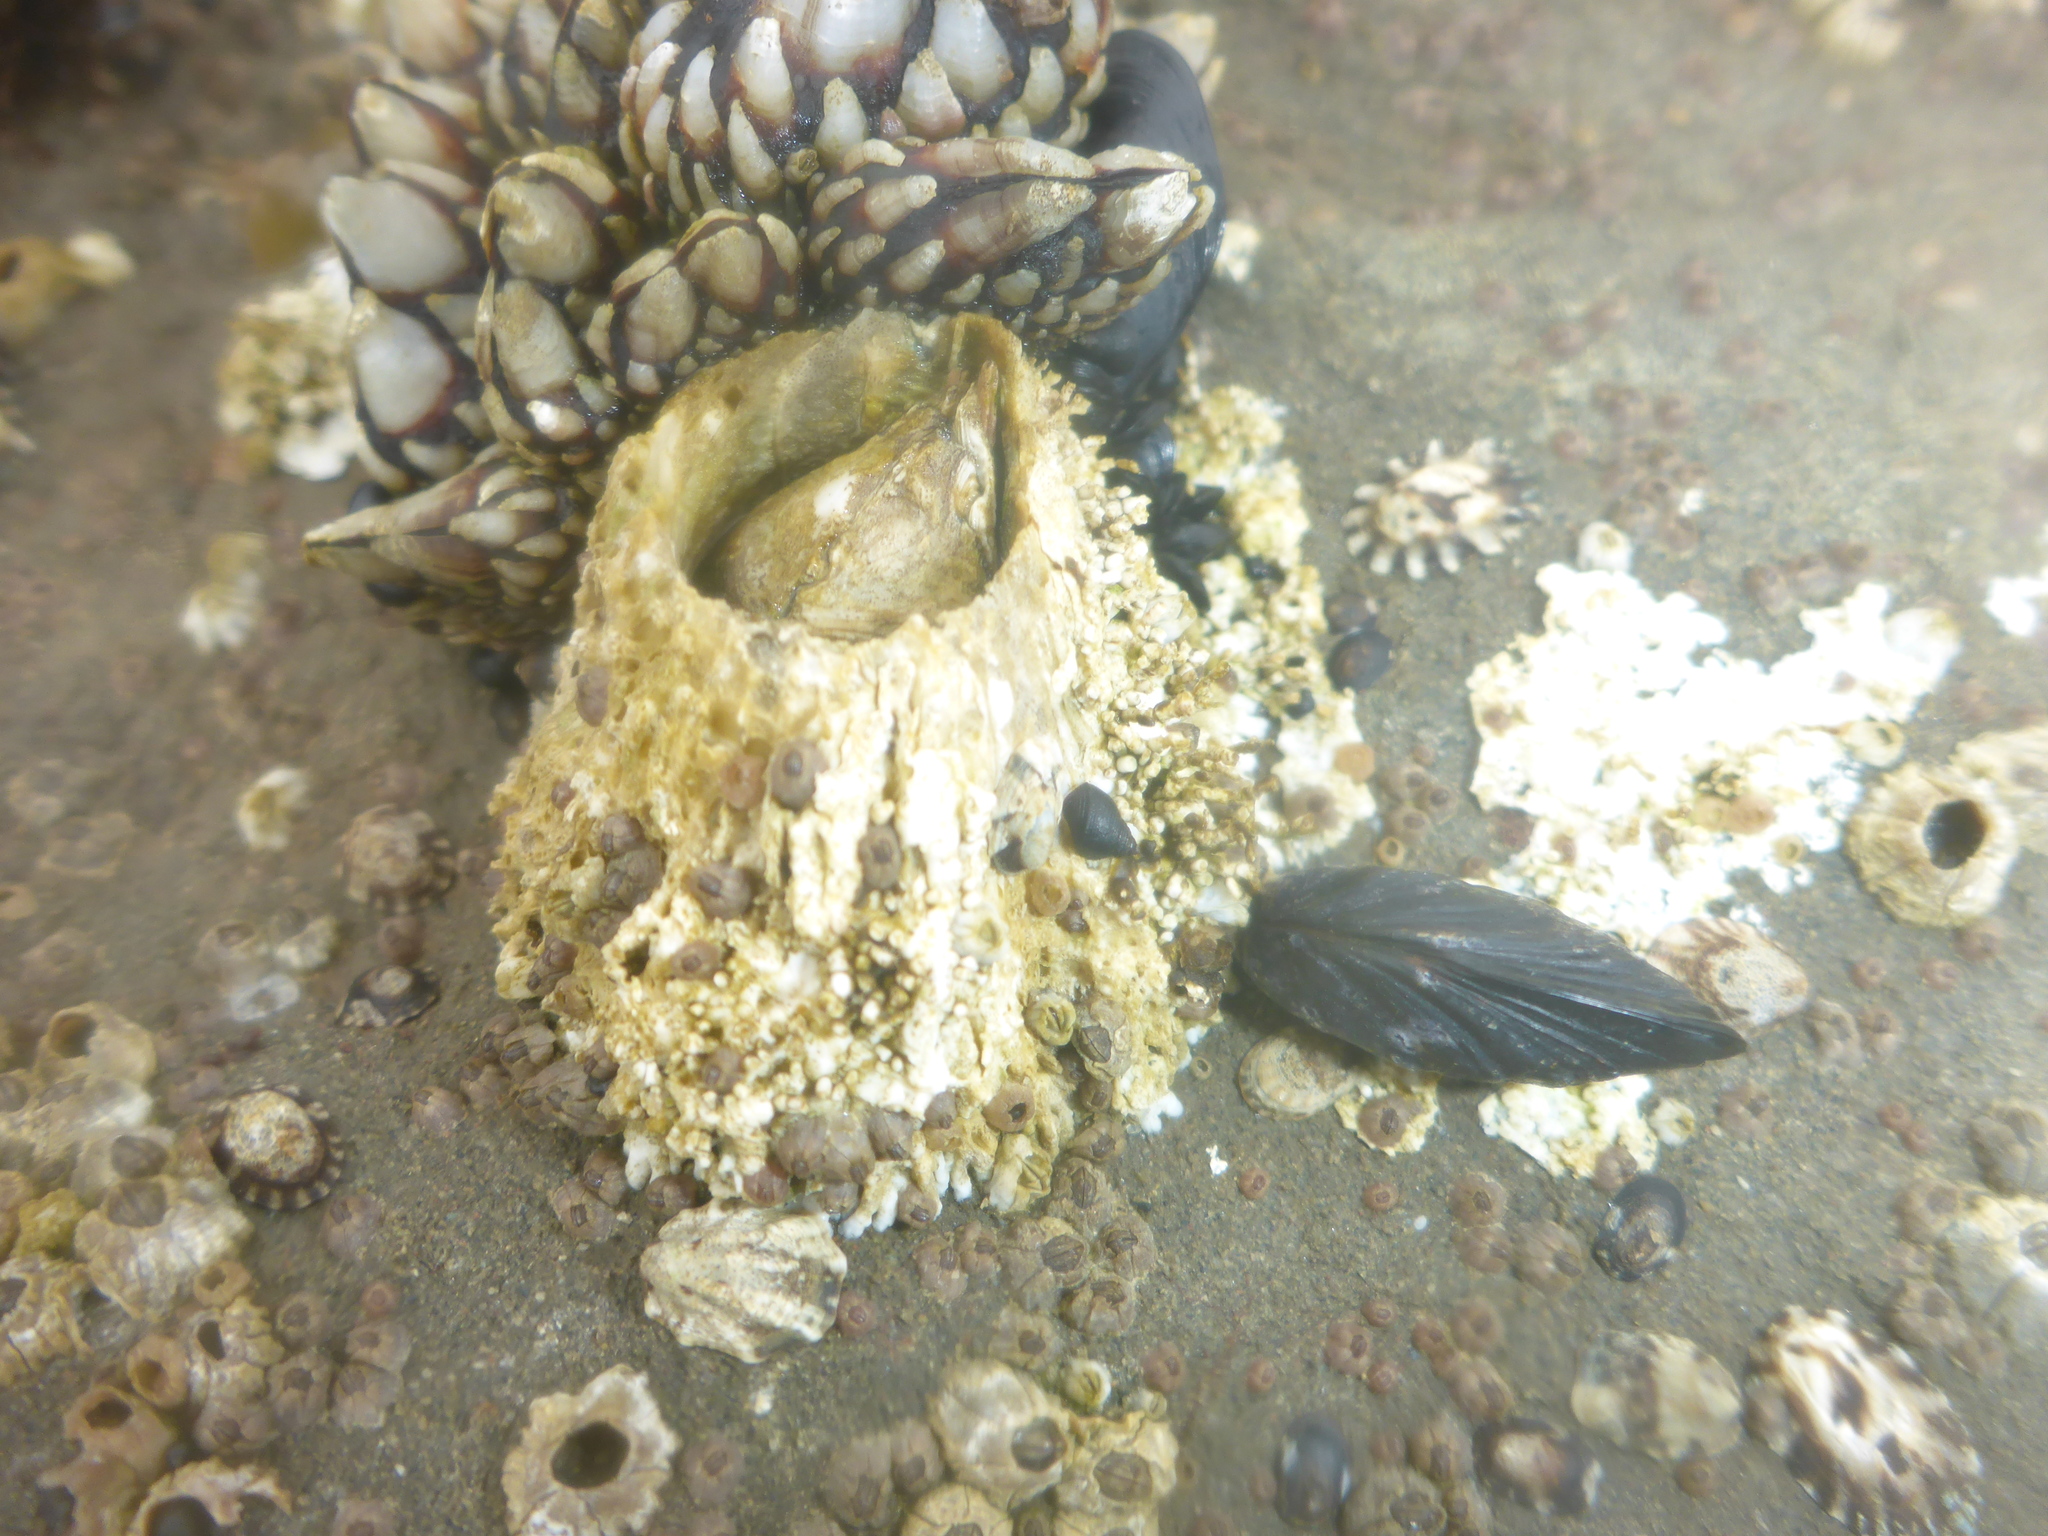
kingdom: Animalia
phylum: Arthropoda
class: Maxillopoda
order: Sessilia
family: Archaeobalanidae
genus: Semibalanus
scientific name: Semibalanus cariosus
